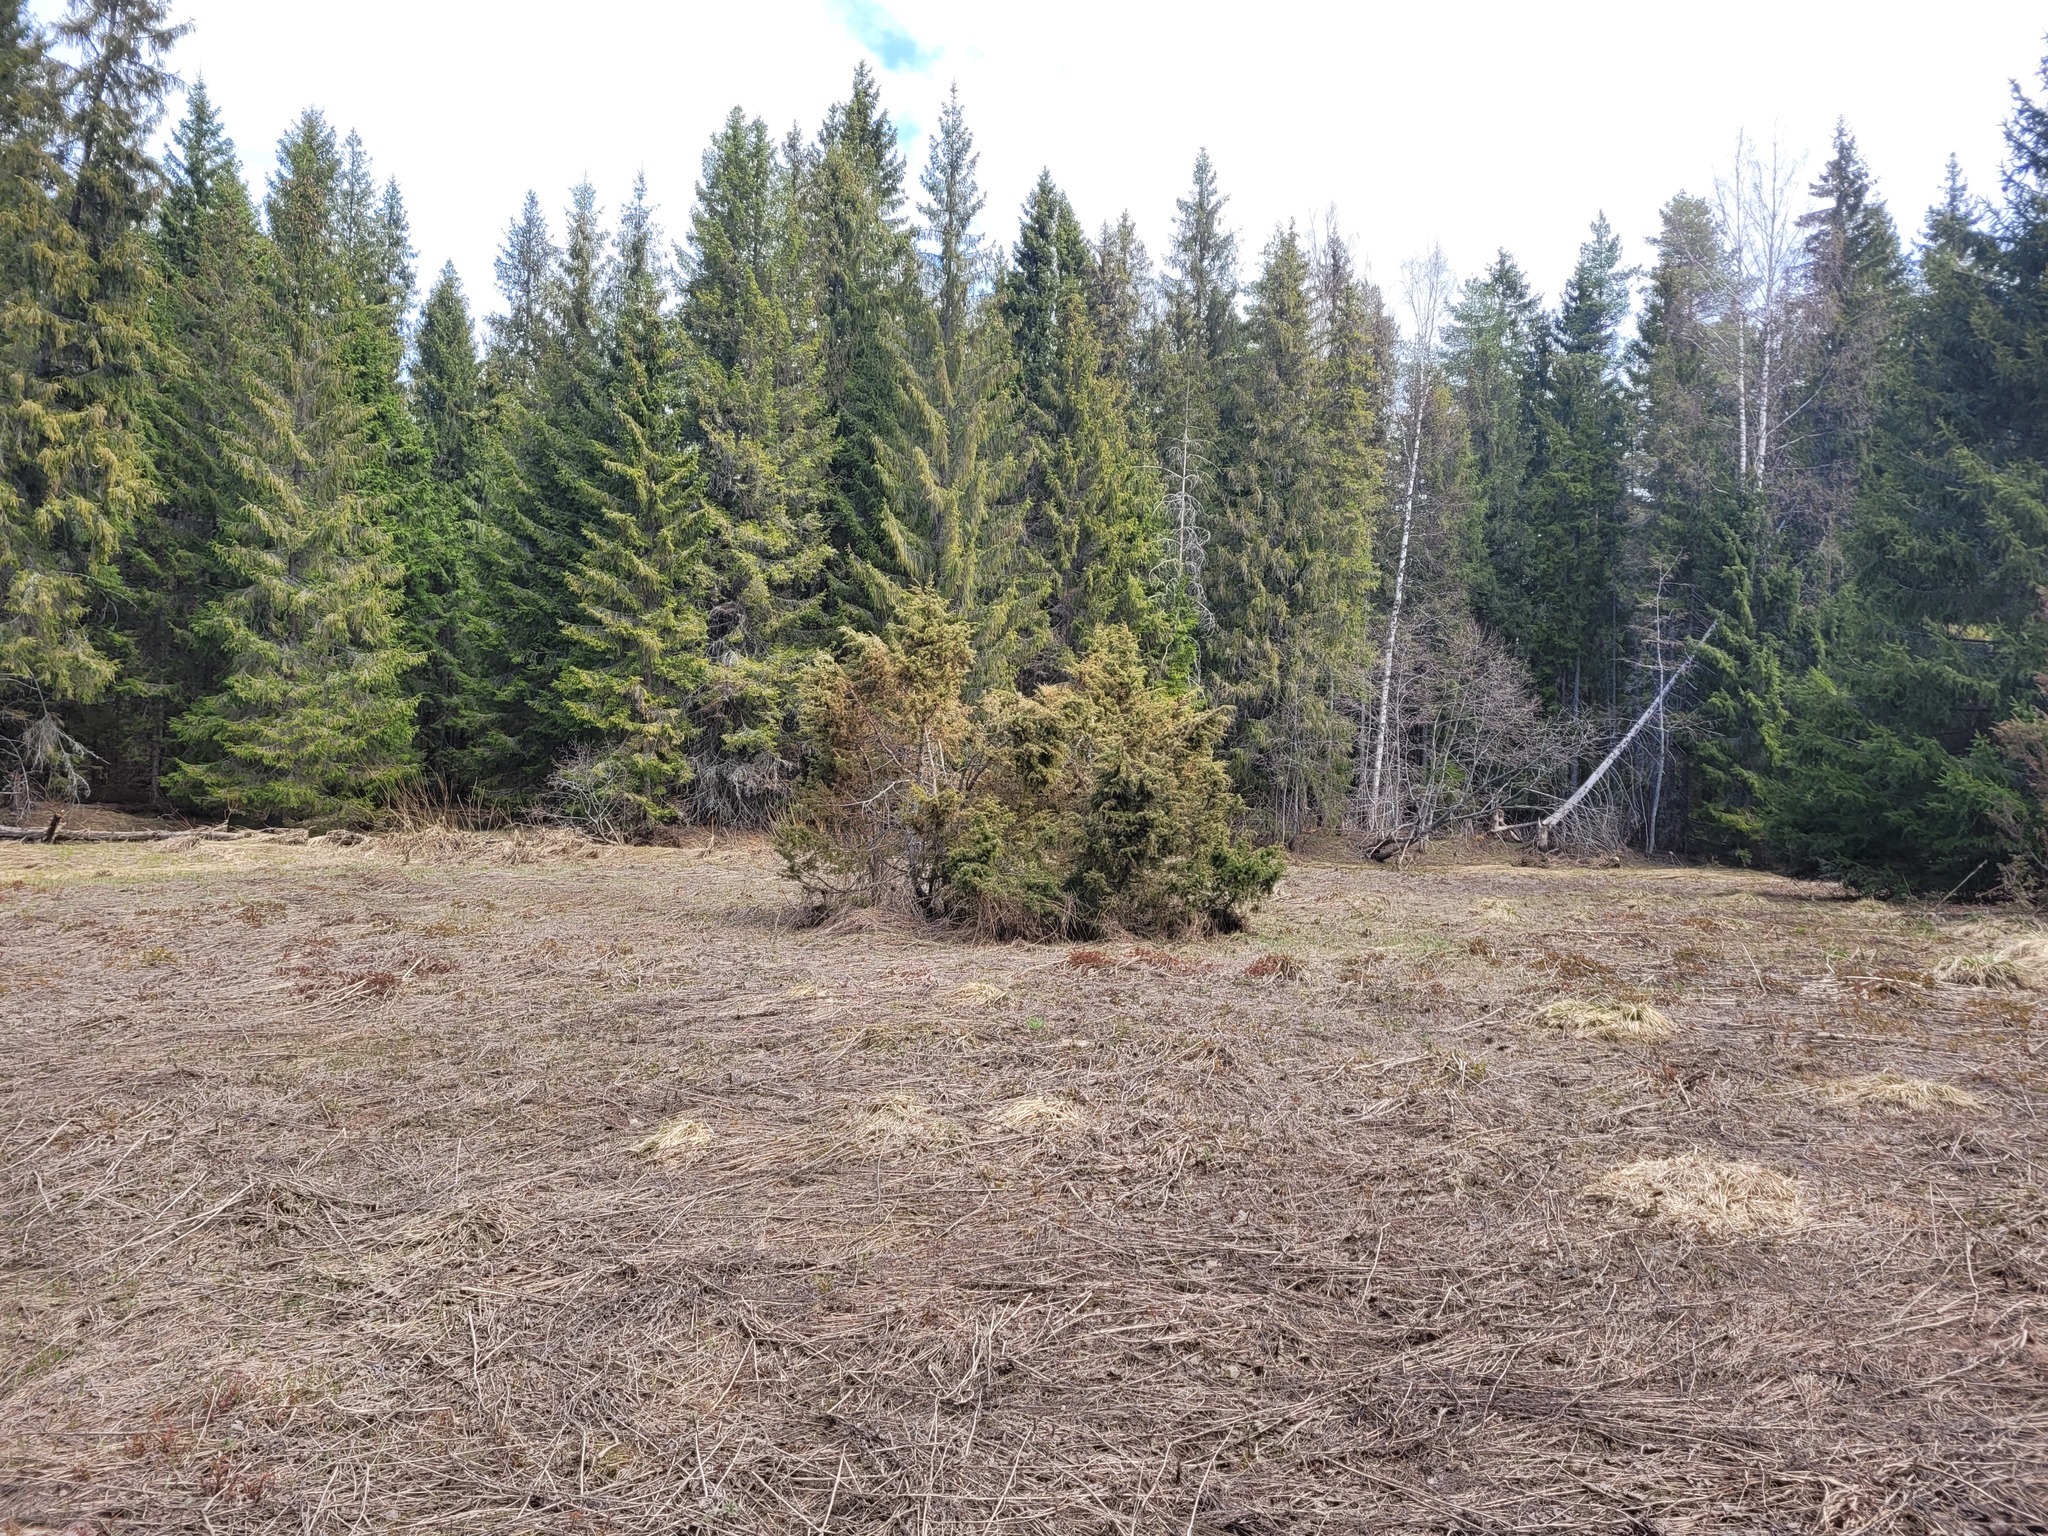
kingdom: Plantae
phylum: Tracheophyta
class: Pinopsida
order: Pinales
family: Cupressaceae
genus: Juniperus
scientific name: Juniperus communis
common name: Common juniper
